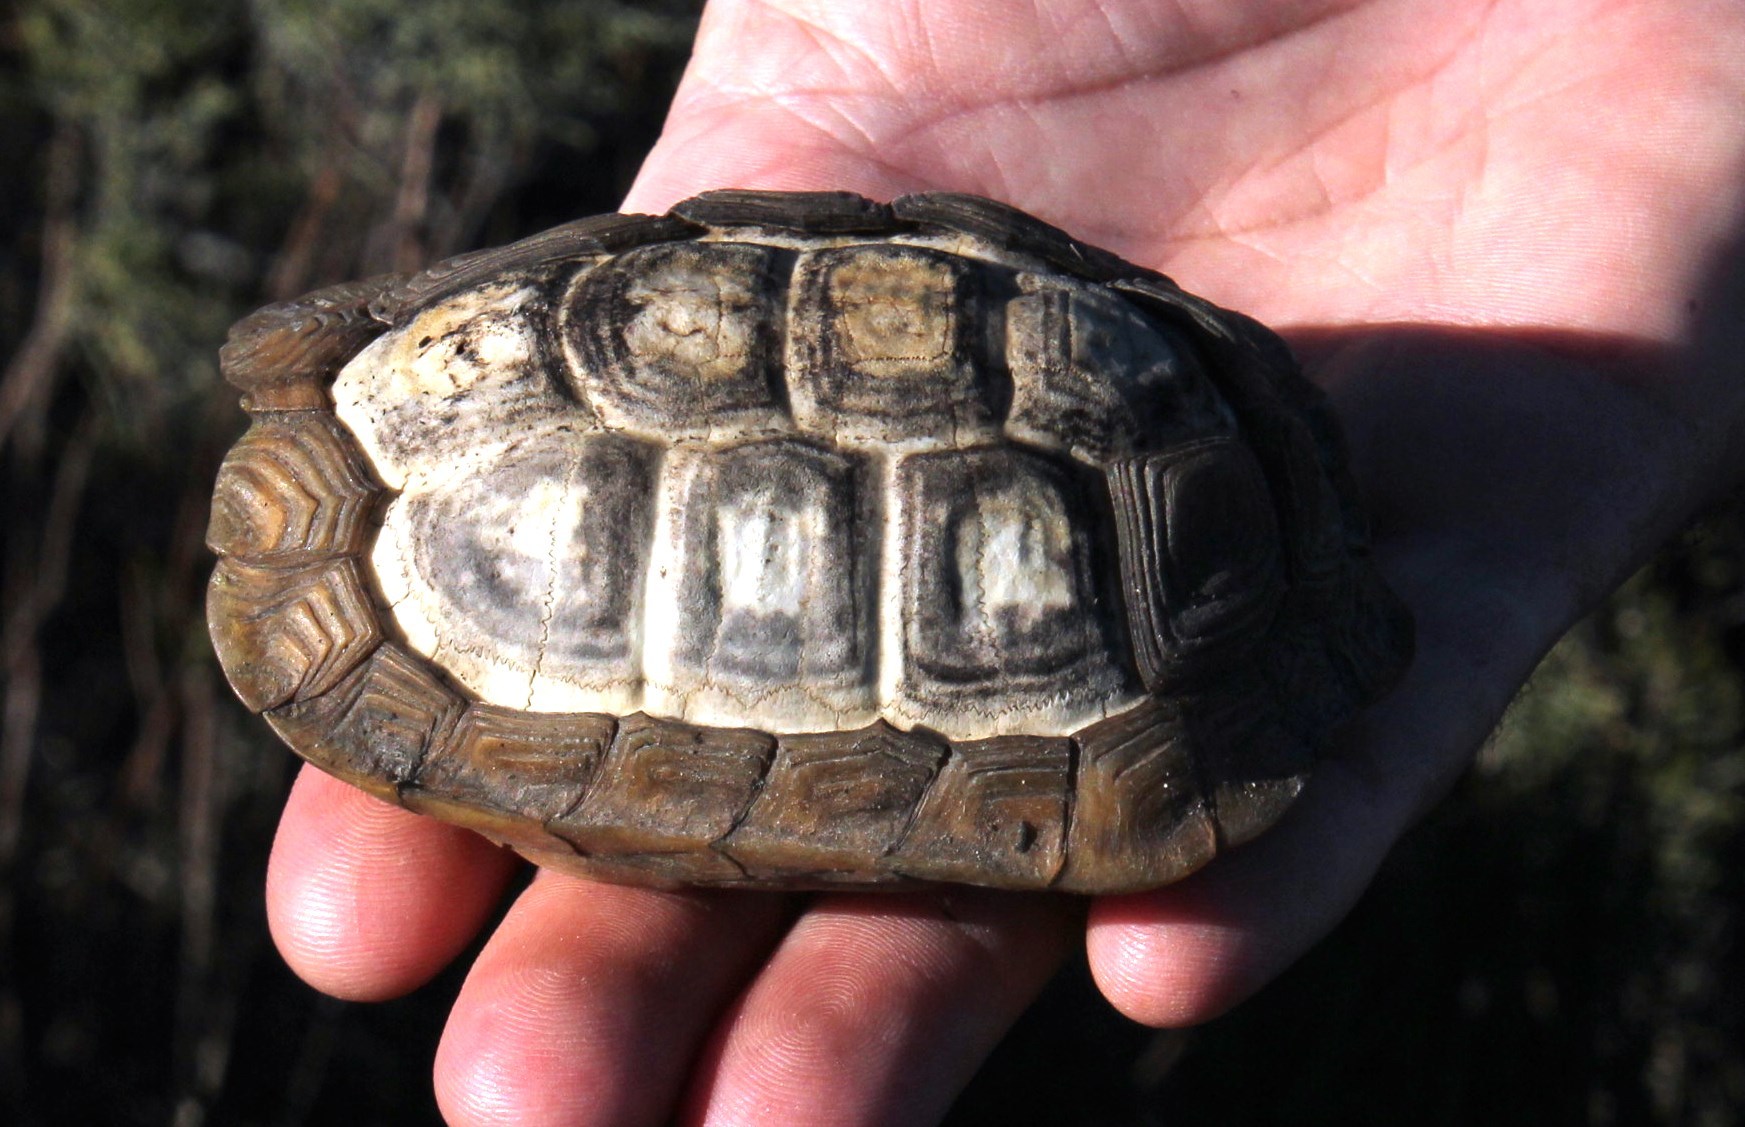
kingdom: Animalia
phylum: Chordata
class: Testudines
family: Testudinidae
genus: Homopus
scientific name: Homopus areolatus
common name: Parrot-beaked tortoise
